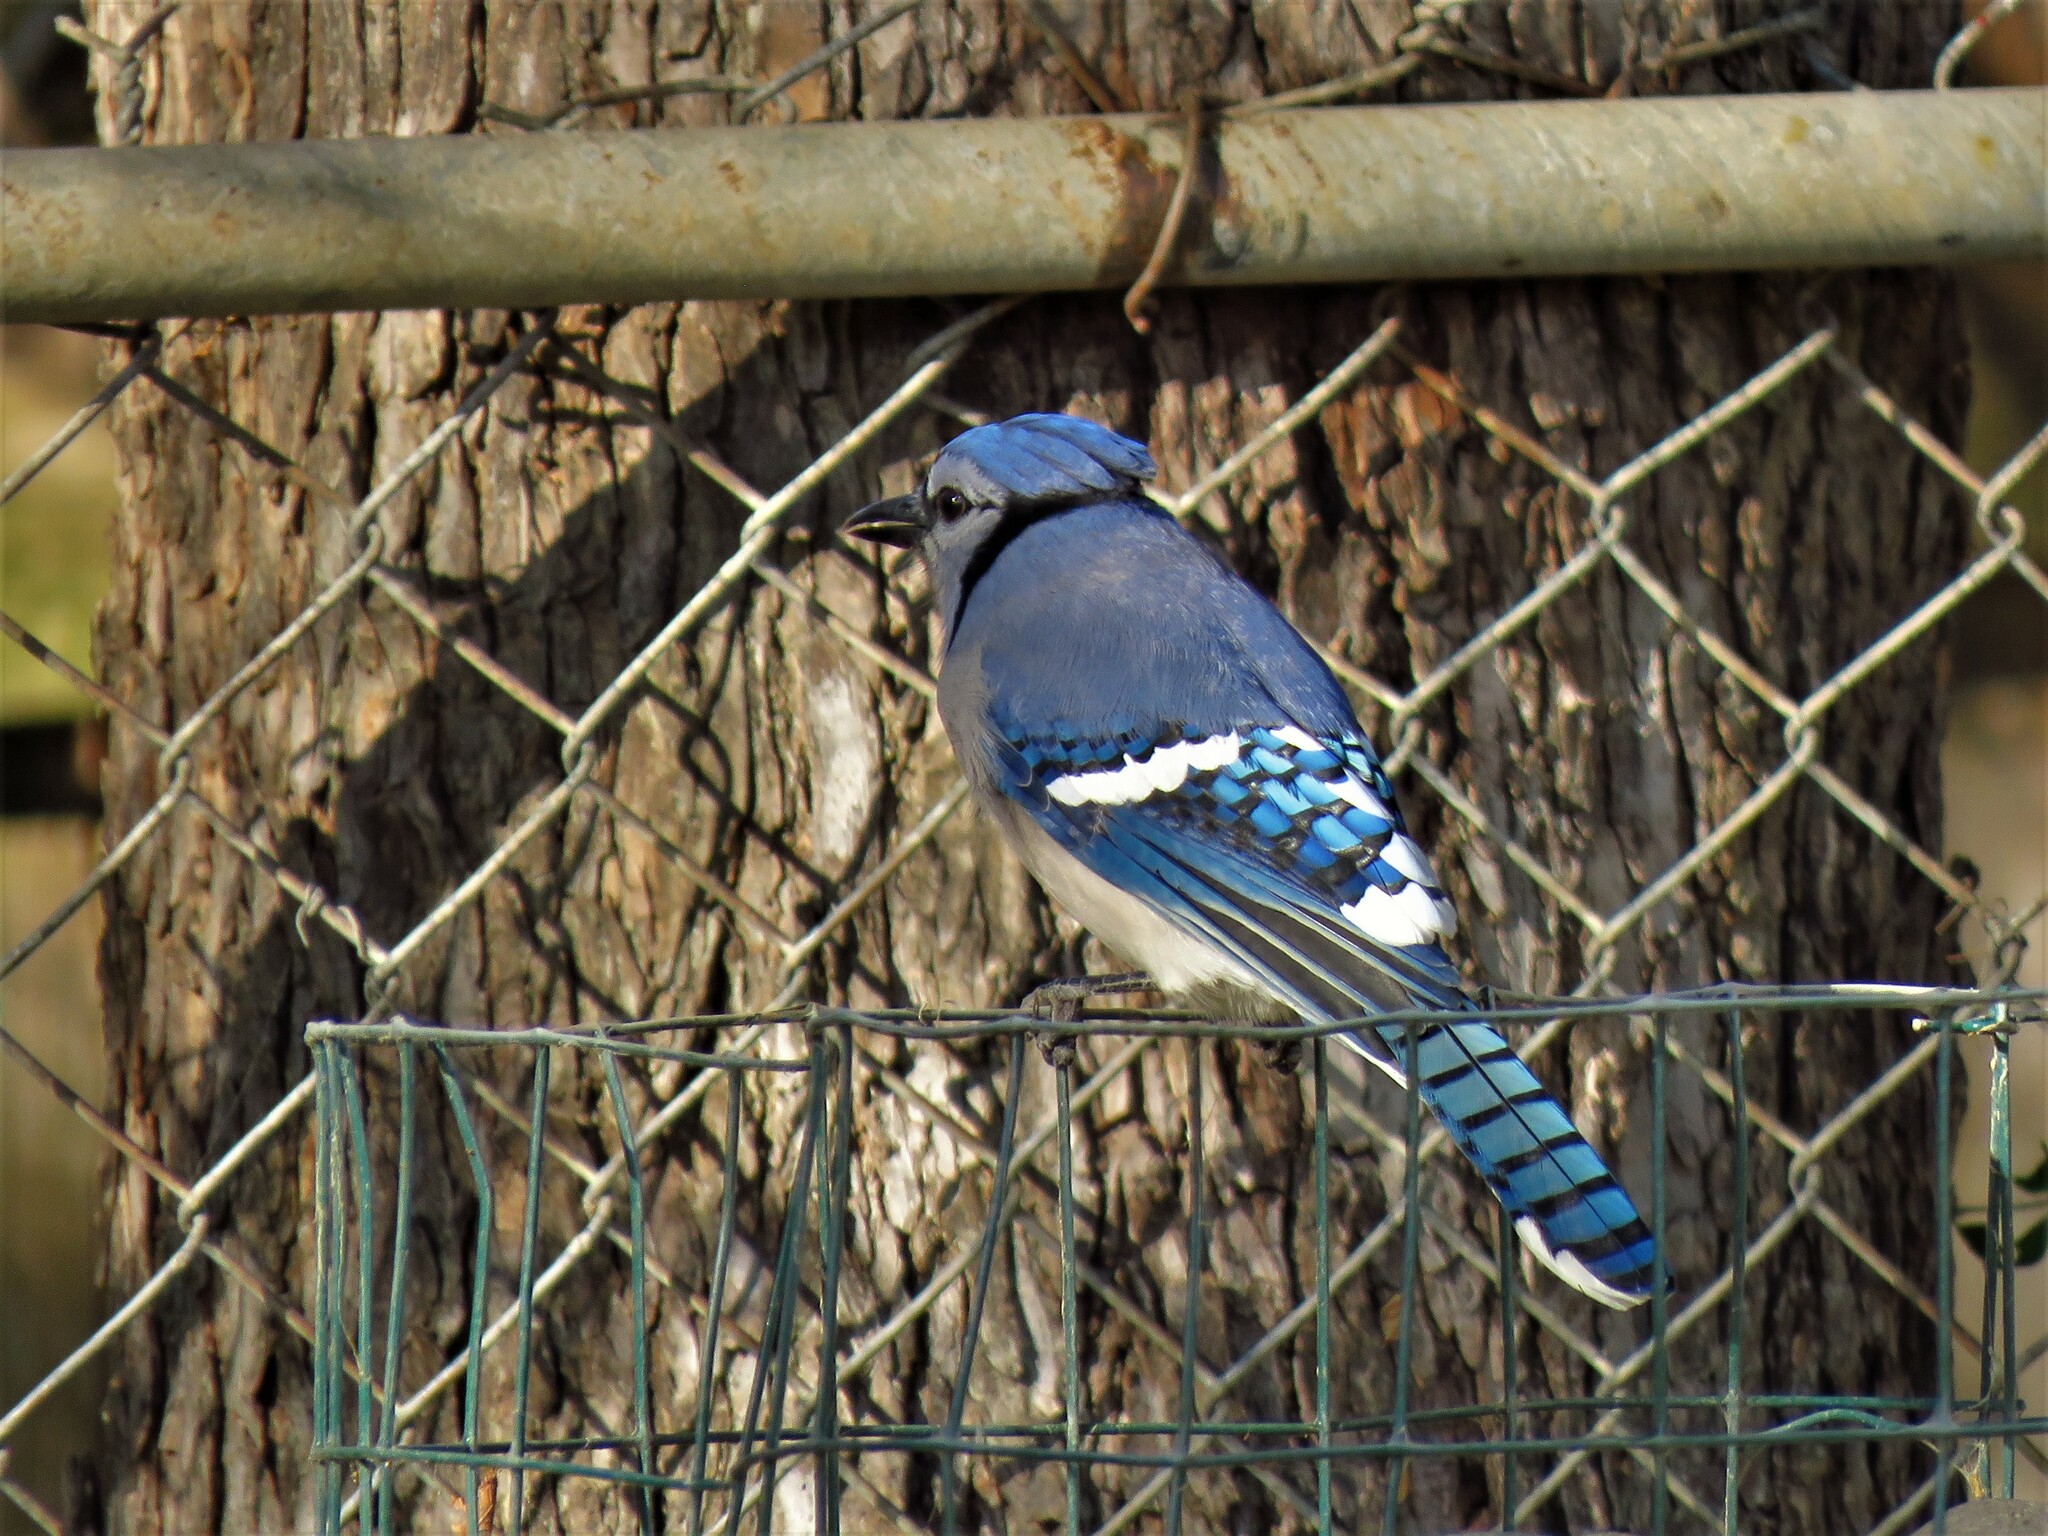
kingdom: Animalia
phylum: Chordata
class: Aves
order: Passeriformes
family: Corvidae
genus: Cyanocitta
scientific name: Cyanocitta cristata
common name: Blue jay
